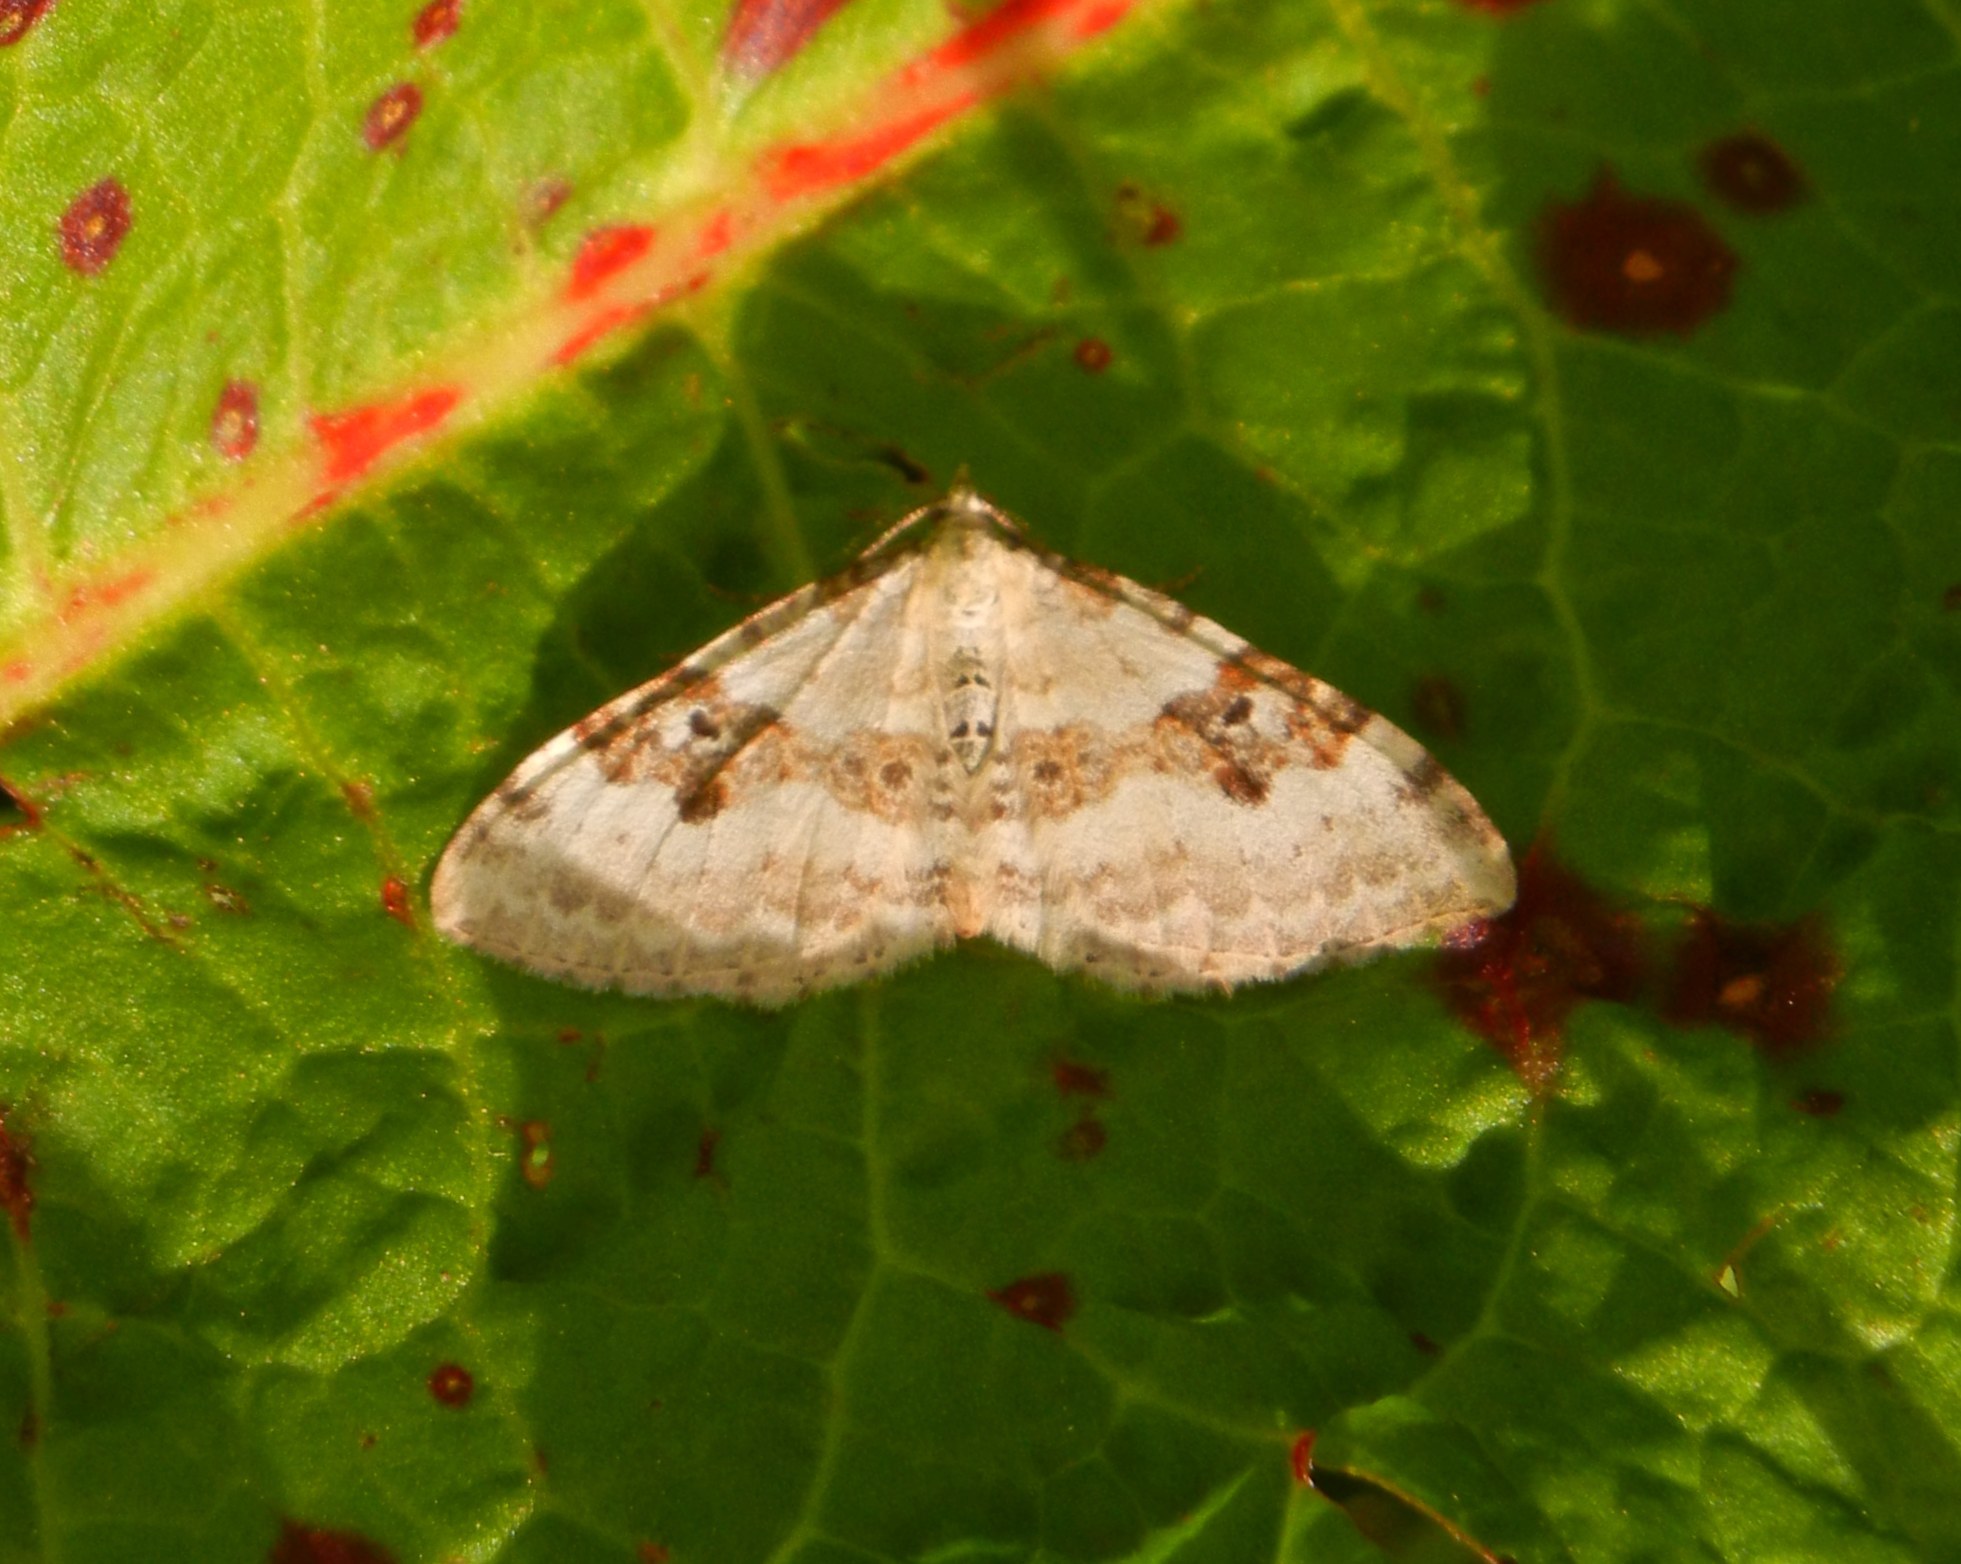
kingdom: Animalia
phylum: Arthropoda
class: Insecta
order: Lepidoptera
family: Geometridae
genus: Xanthorhoe
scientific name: Xanthorhoe montanata
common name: Silver-ground carpet
